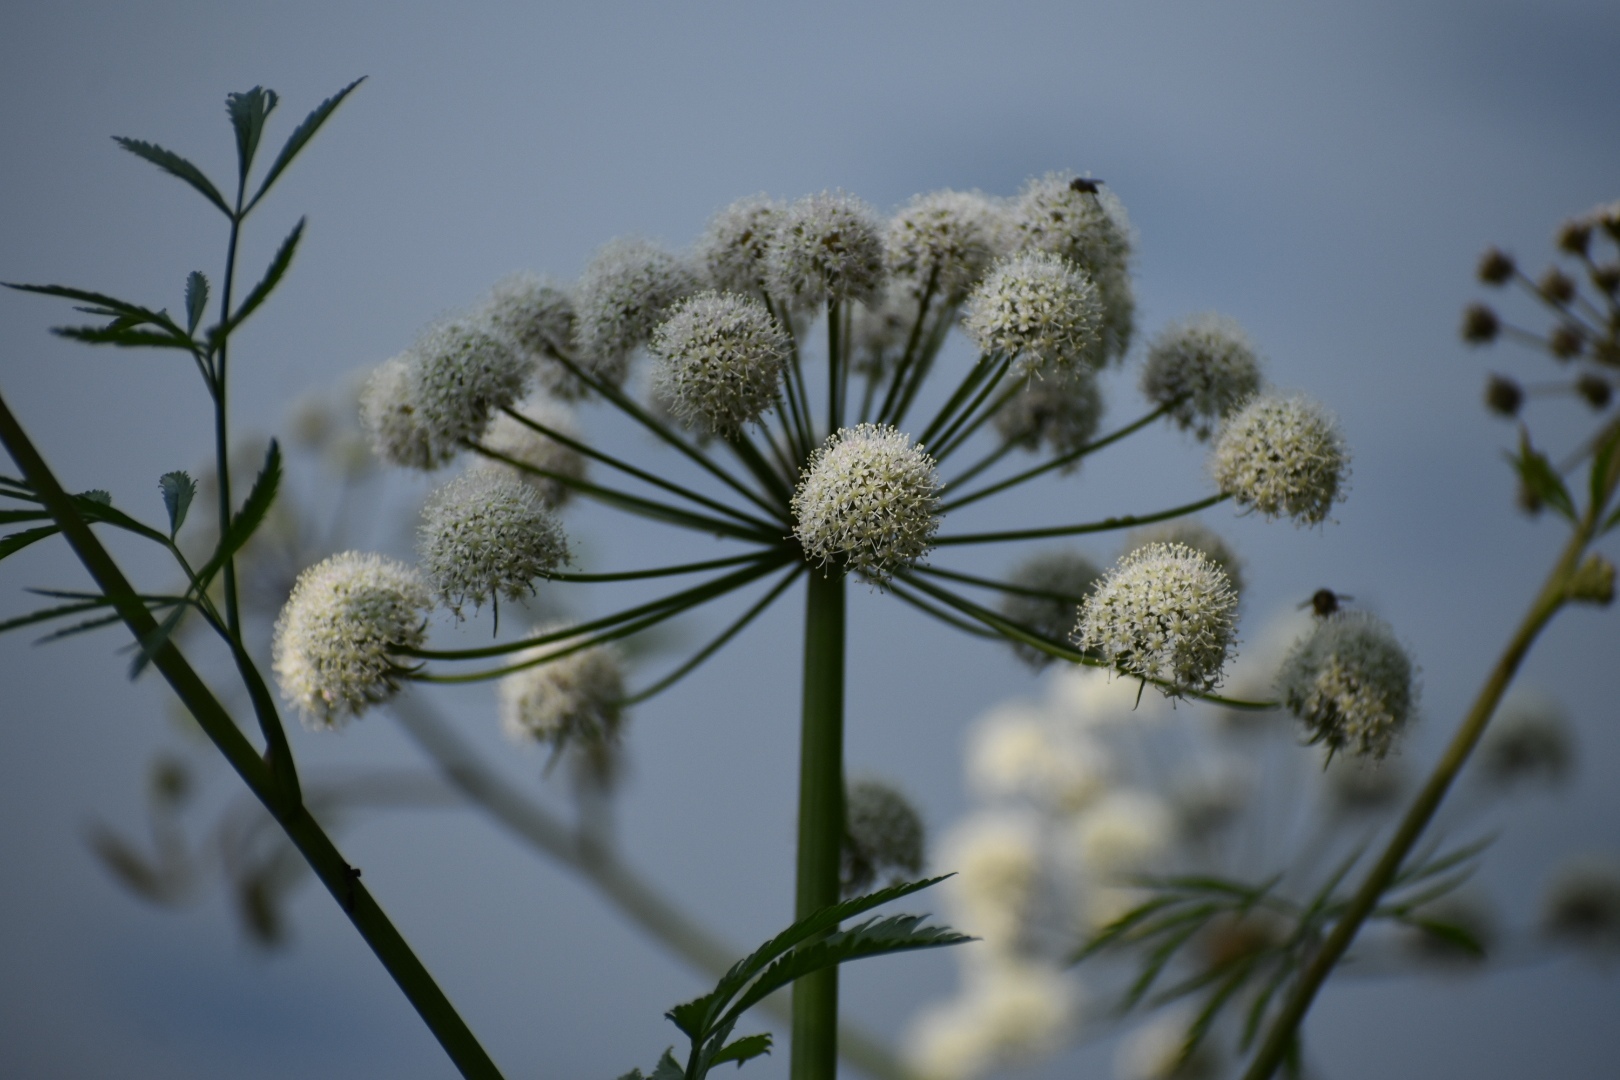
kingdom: Plantae
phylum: Tracheophyta
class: Magnoliopsida
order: Apiales
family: Apiaceae
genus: Cicuta
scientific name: Cicuta virosa
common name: Cowbane
